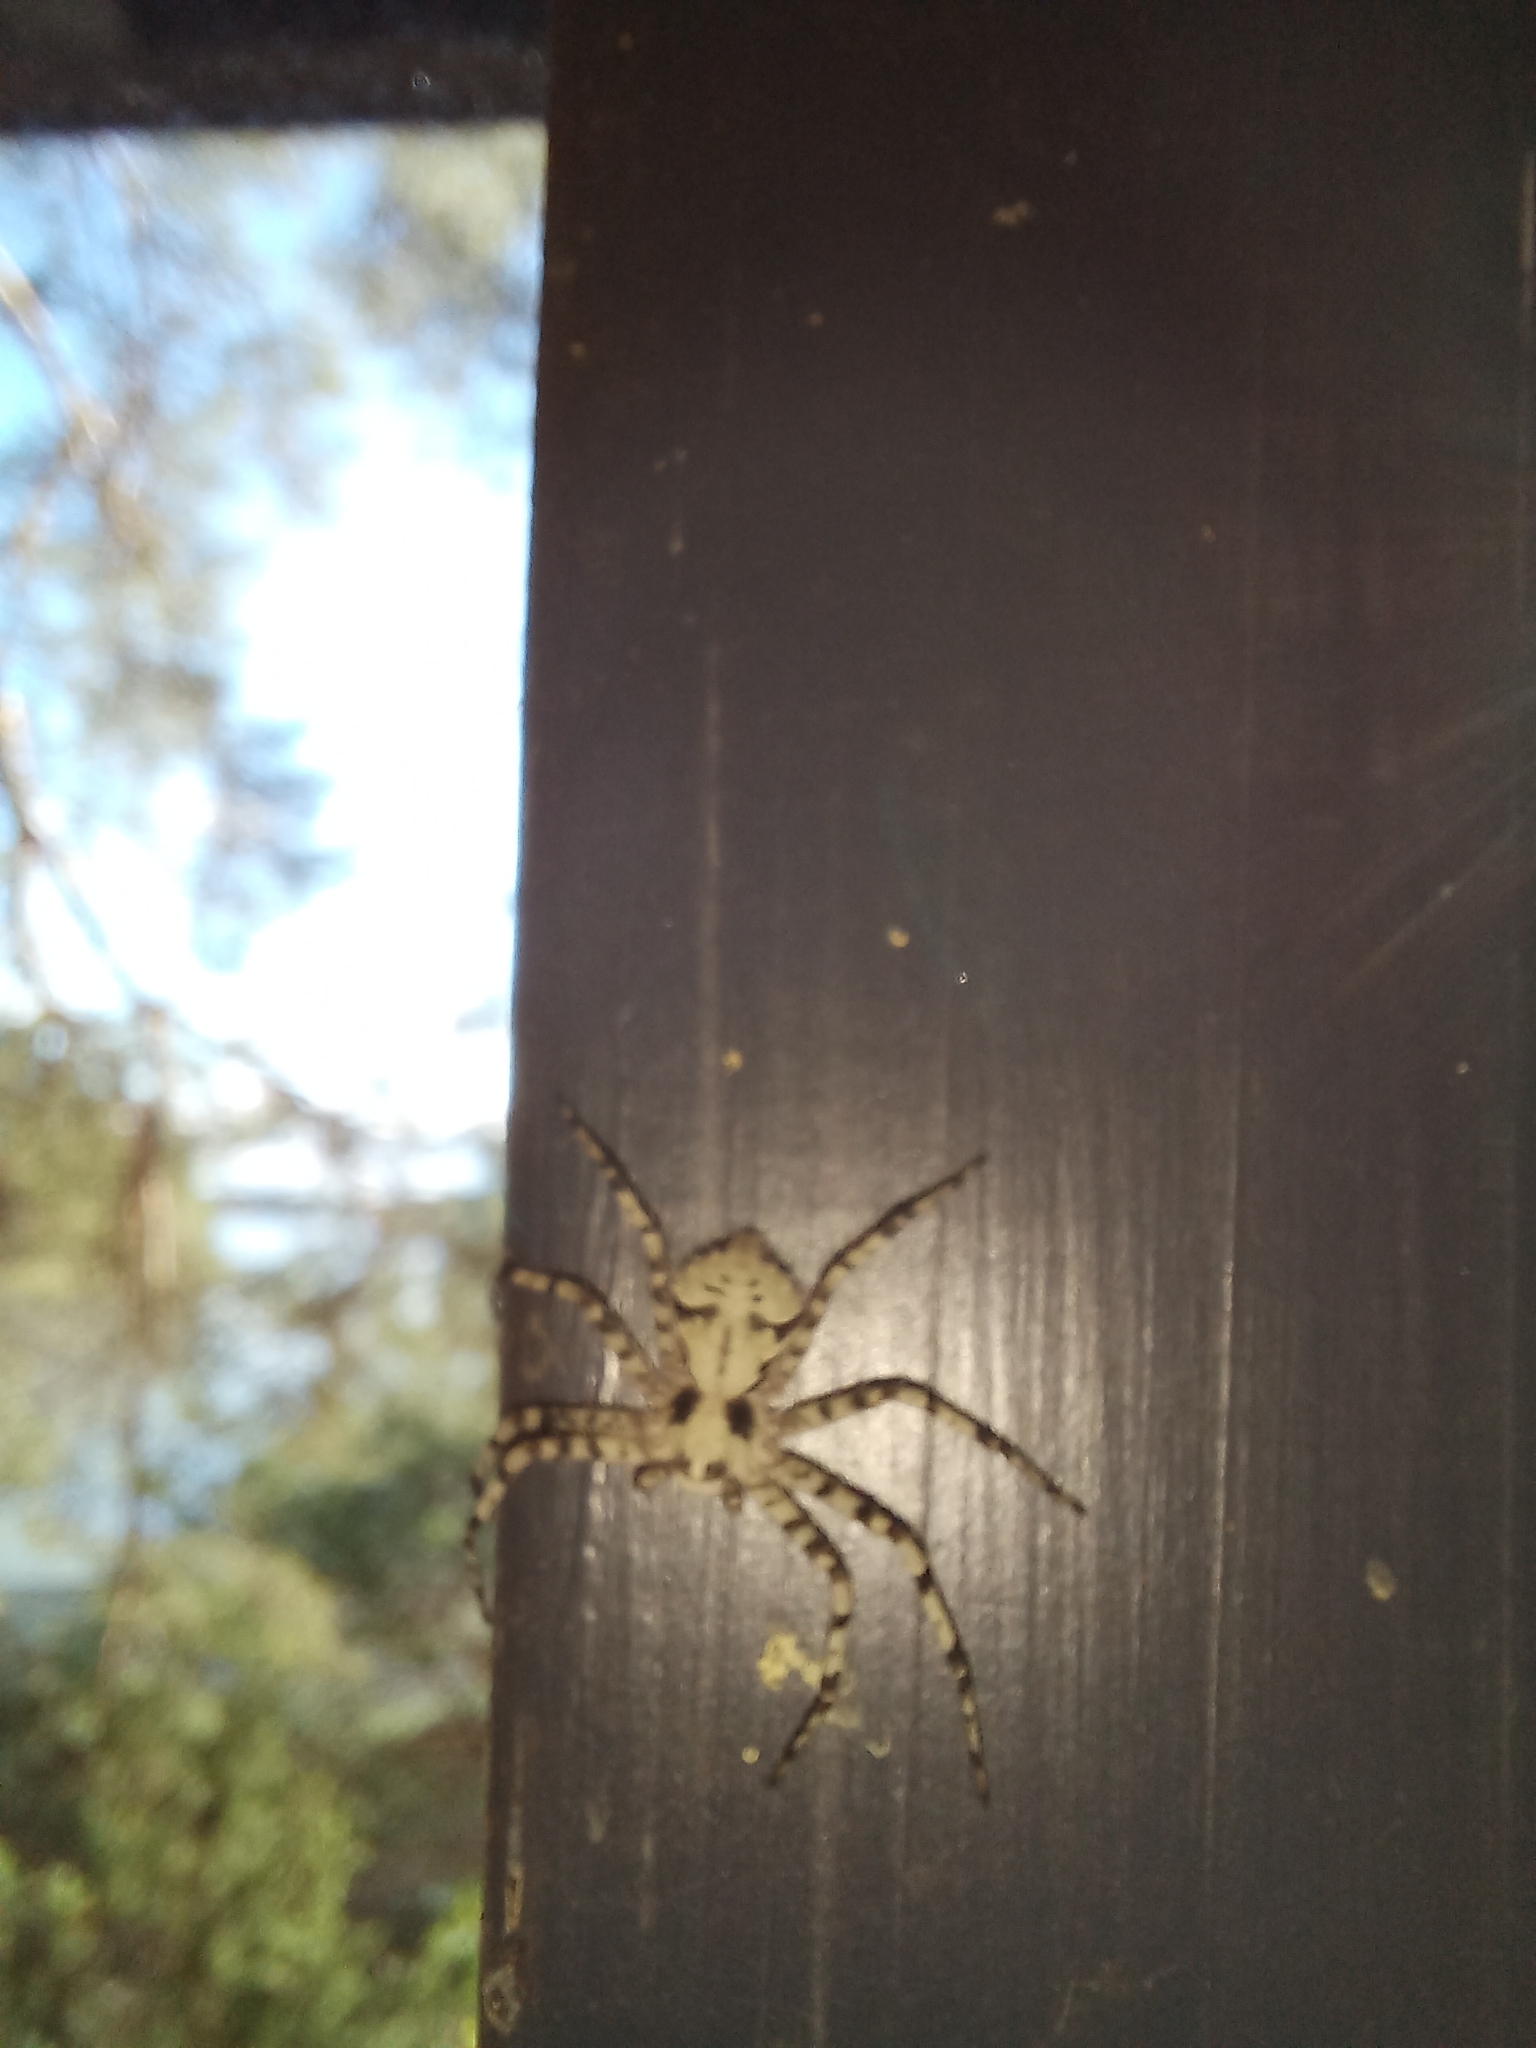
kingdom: Animalia
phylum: Arthropoda
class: Arachnida
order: Araneae
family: Philodromidae
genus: Philodromus
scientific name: Philodromus margaritatus
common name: Lichen running-spider
